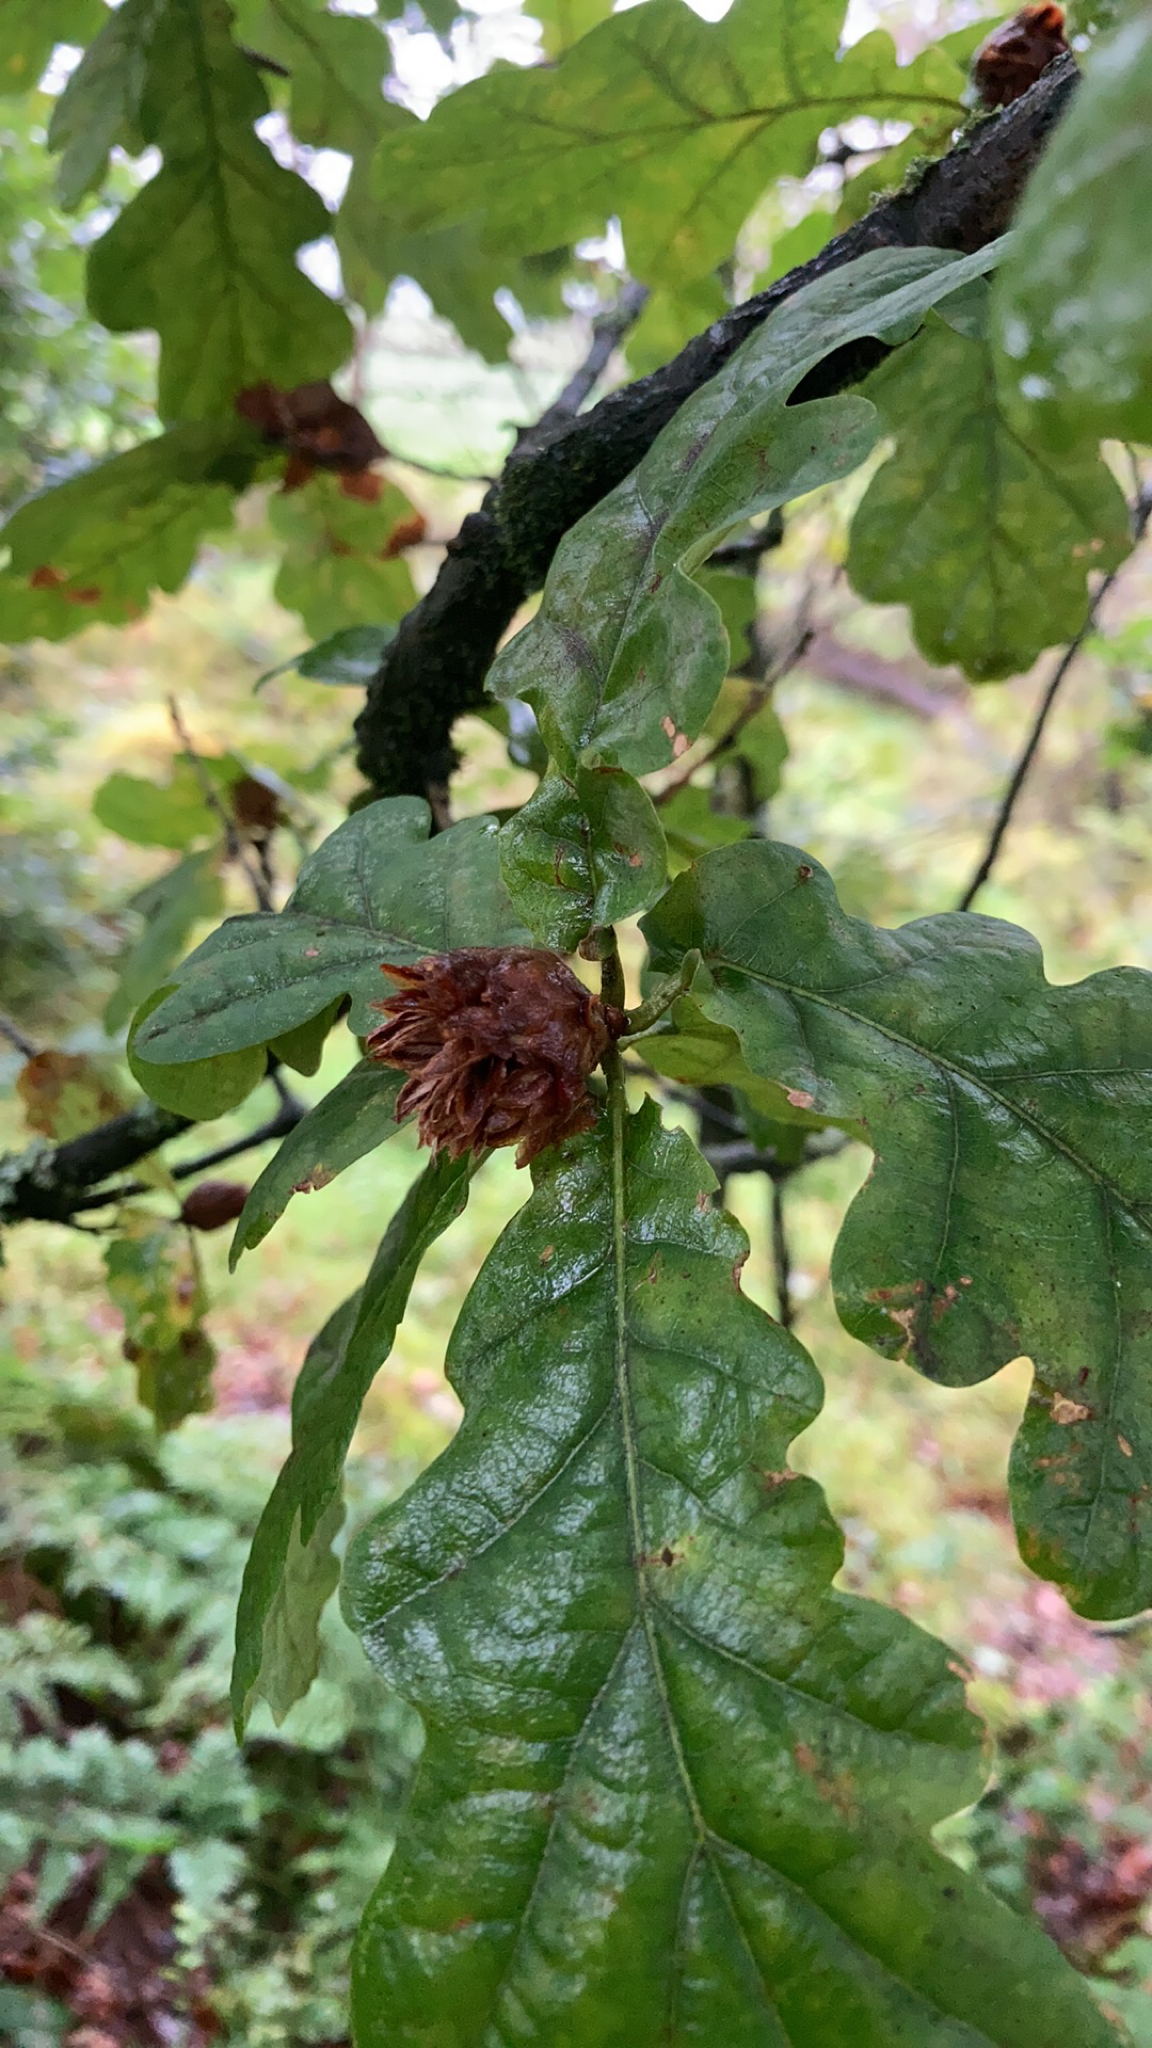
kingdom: Animalia
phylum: Arthropoda
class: Insecta
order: Hymenoptera
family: Cynipidae
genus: Andricus
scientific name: Andricus foecundatrix
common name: Artichoke gall
